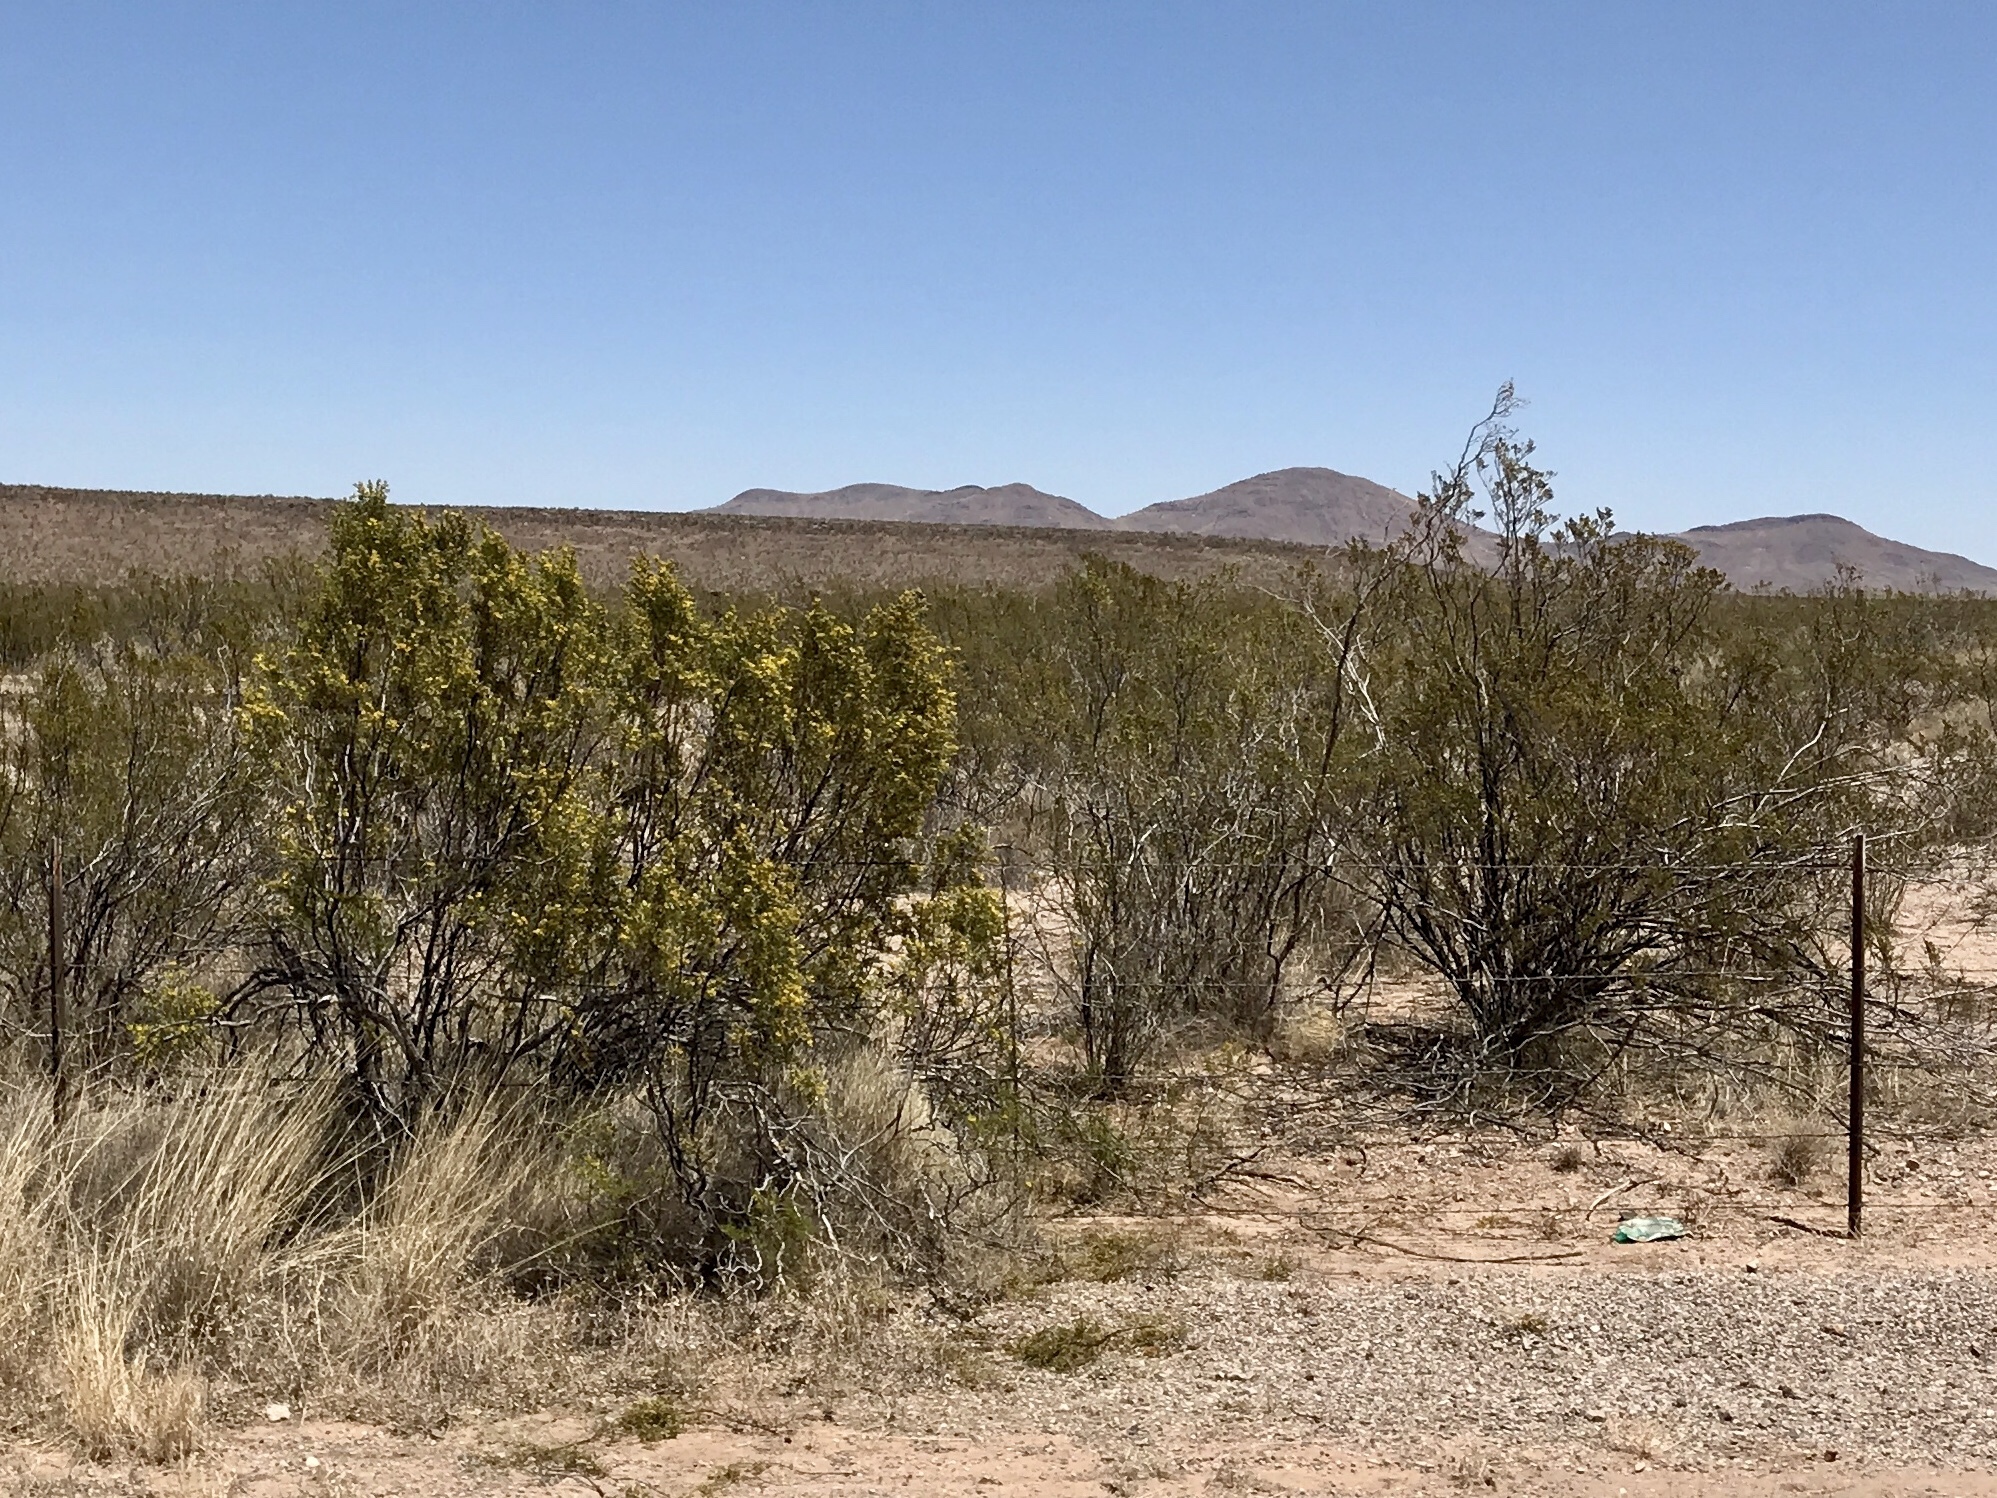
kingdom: Plantae
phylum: Tracheophyta
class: Magnoliopsida
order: Zygophyllales
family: Zygophyllaceae
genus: Larrea
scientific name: Larrea tridentata
